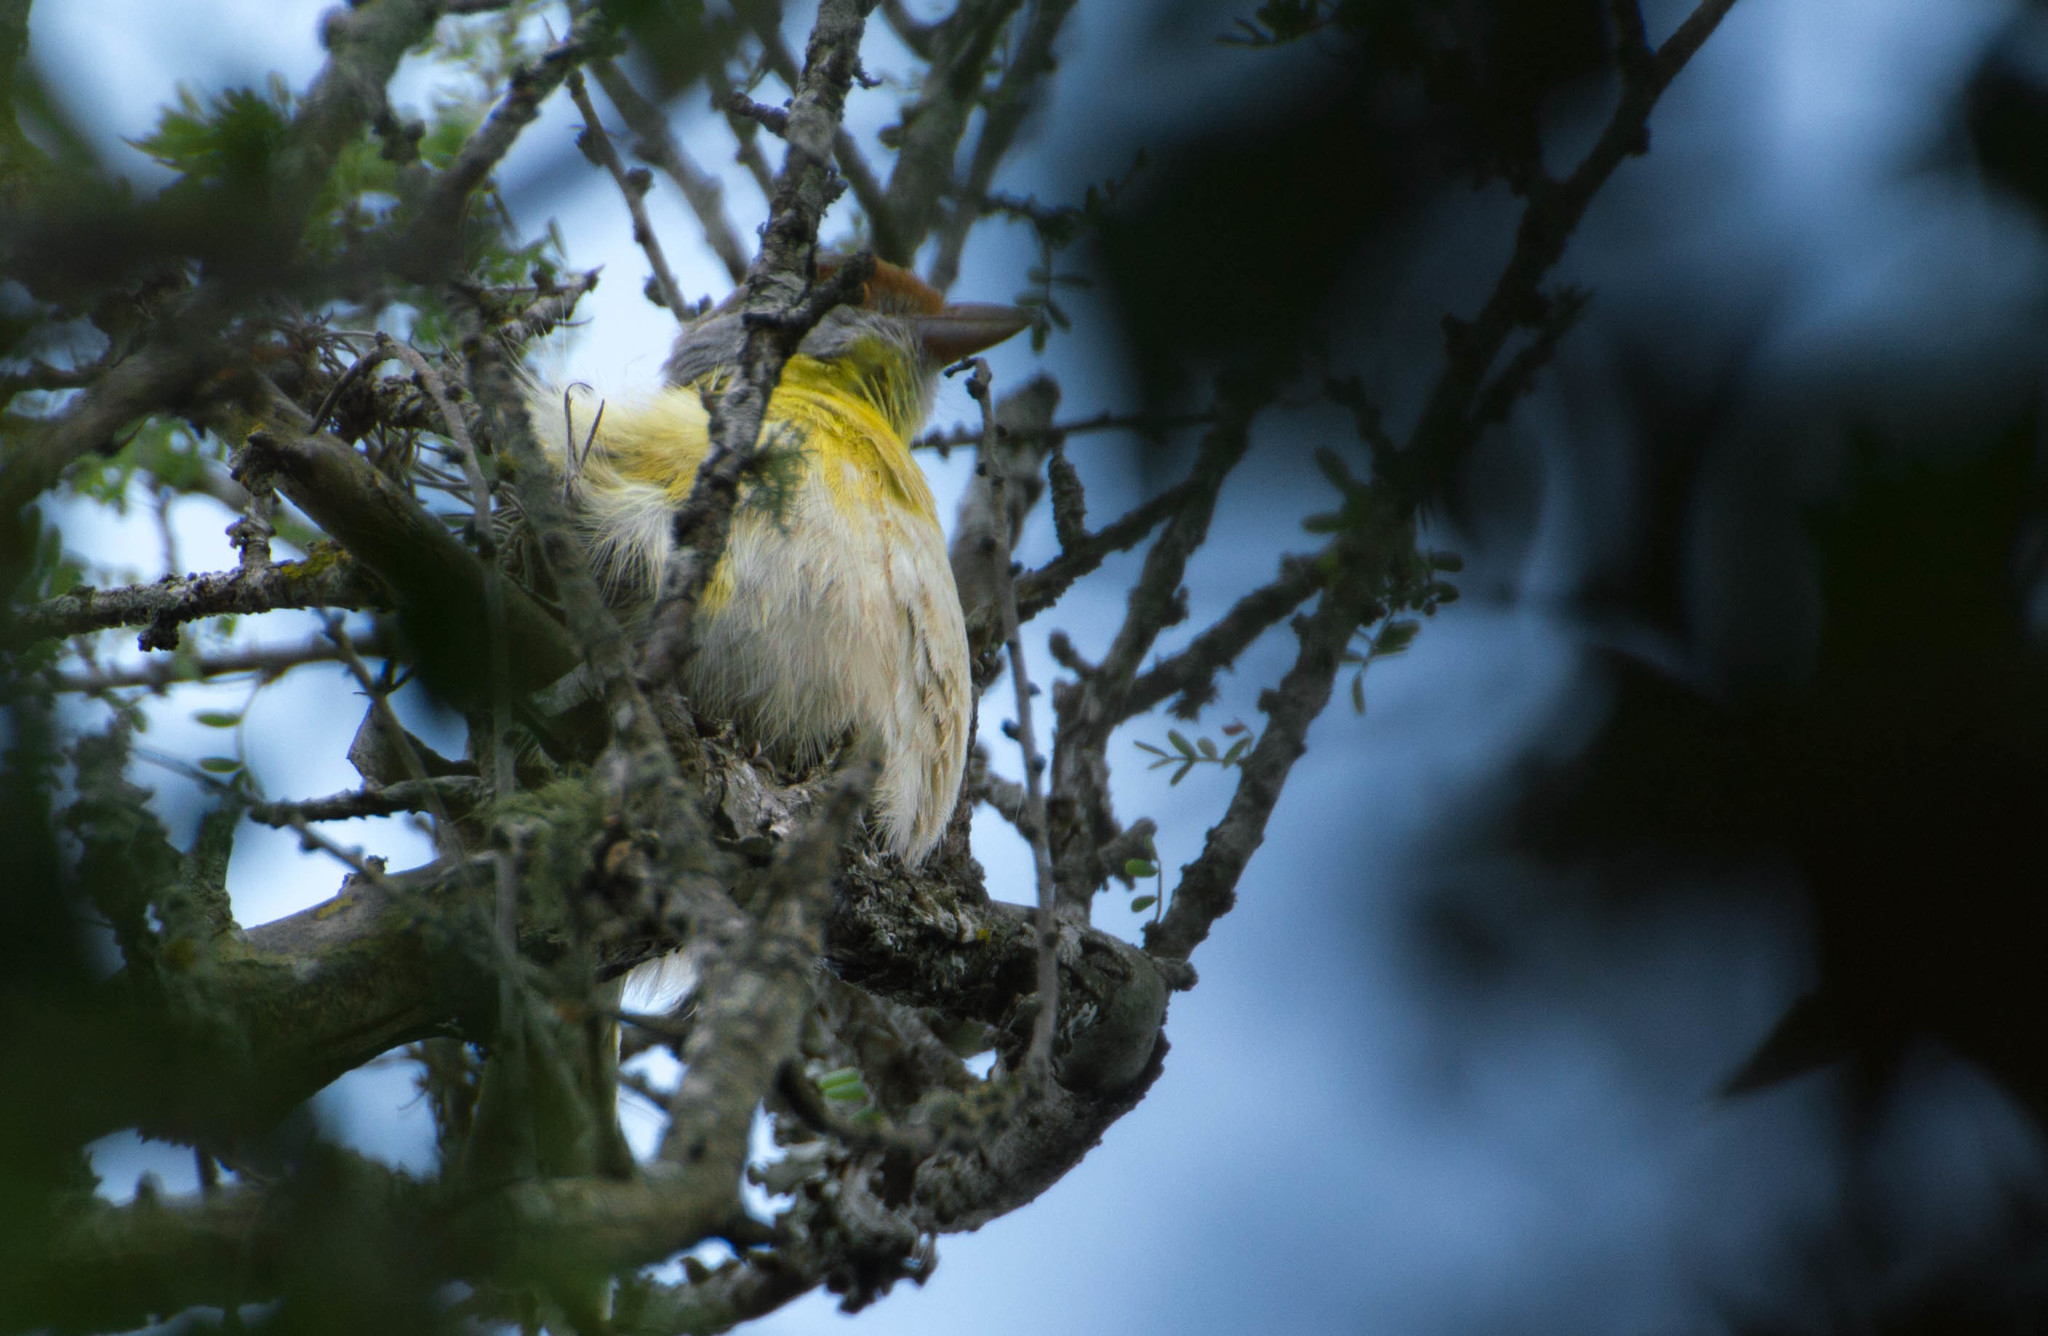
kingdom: Animalia
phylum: Chordata
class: Aves
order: Passeriformes
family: Vireonidae
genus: Cyclarhis
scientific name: Cyclarhis gujanensis
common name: Rufous-browed peppershrike
